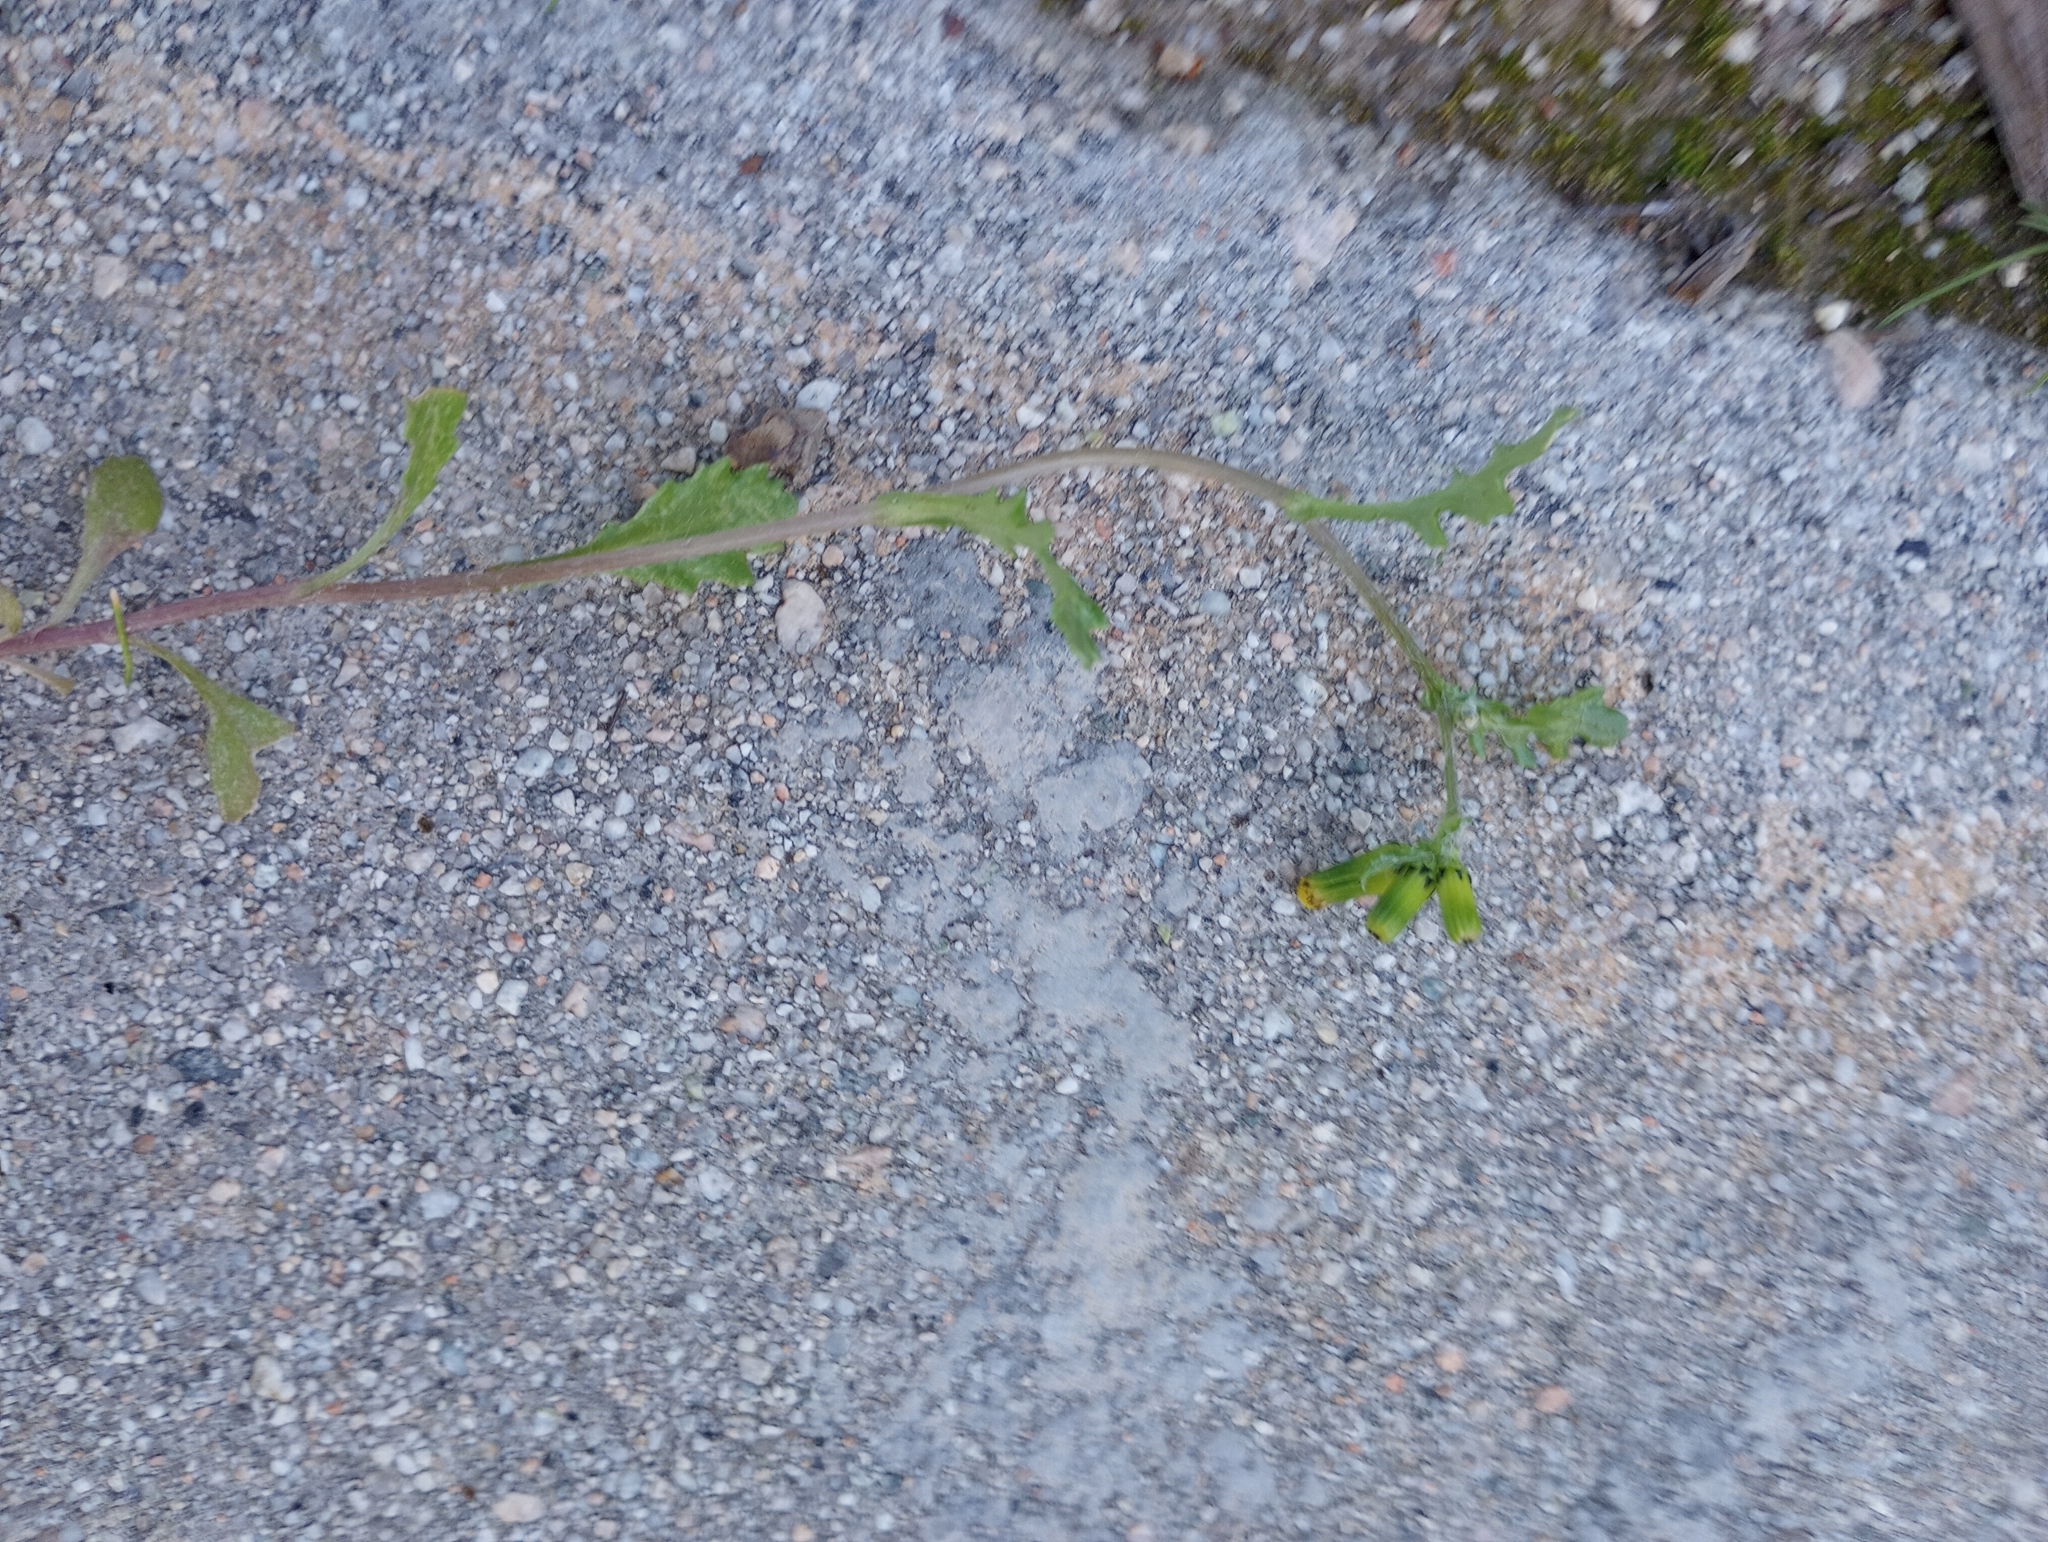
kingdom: Plantae
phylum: Tracheophyta
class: Magnoliopsida
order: Asterales
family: Asteraceae
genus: Senecio
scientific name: Senecio vulgaris
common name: Old-man-in-the-spring
